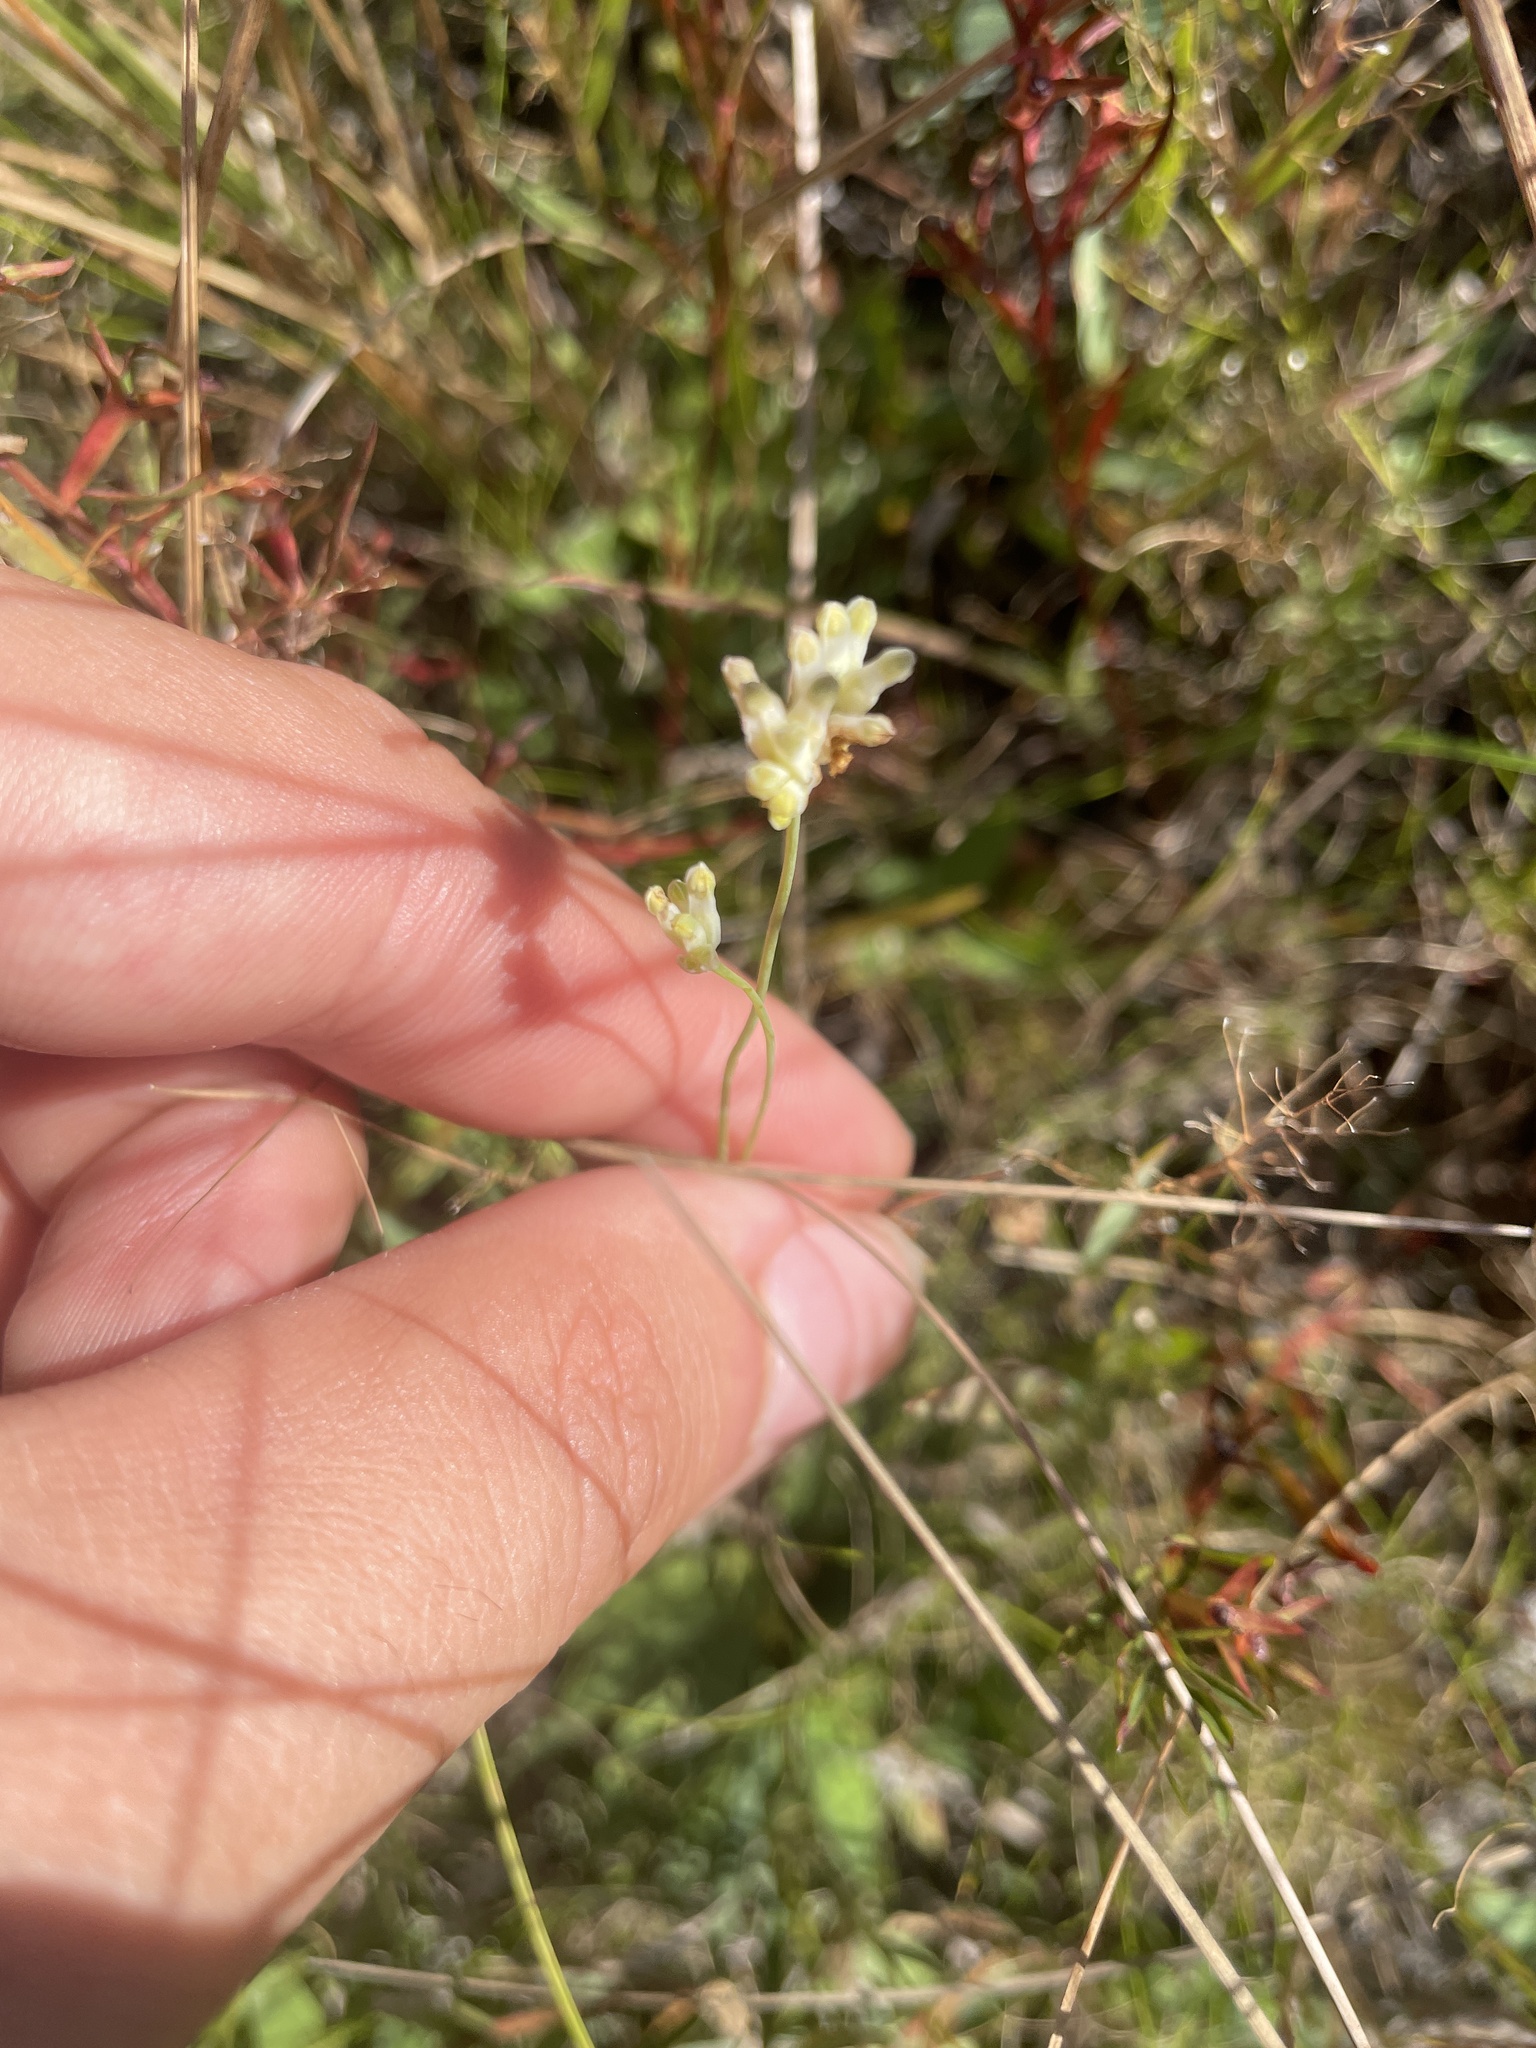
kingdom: Plantae
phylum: Tracheophyta
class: Liliopsida
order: Dioscoreales
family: Burmanniaceae
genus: Burmannia
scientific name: Burmannia capitata
